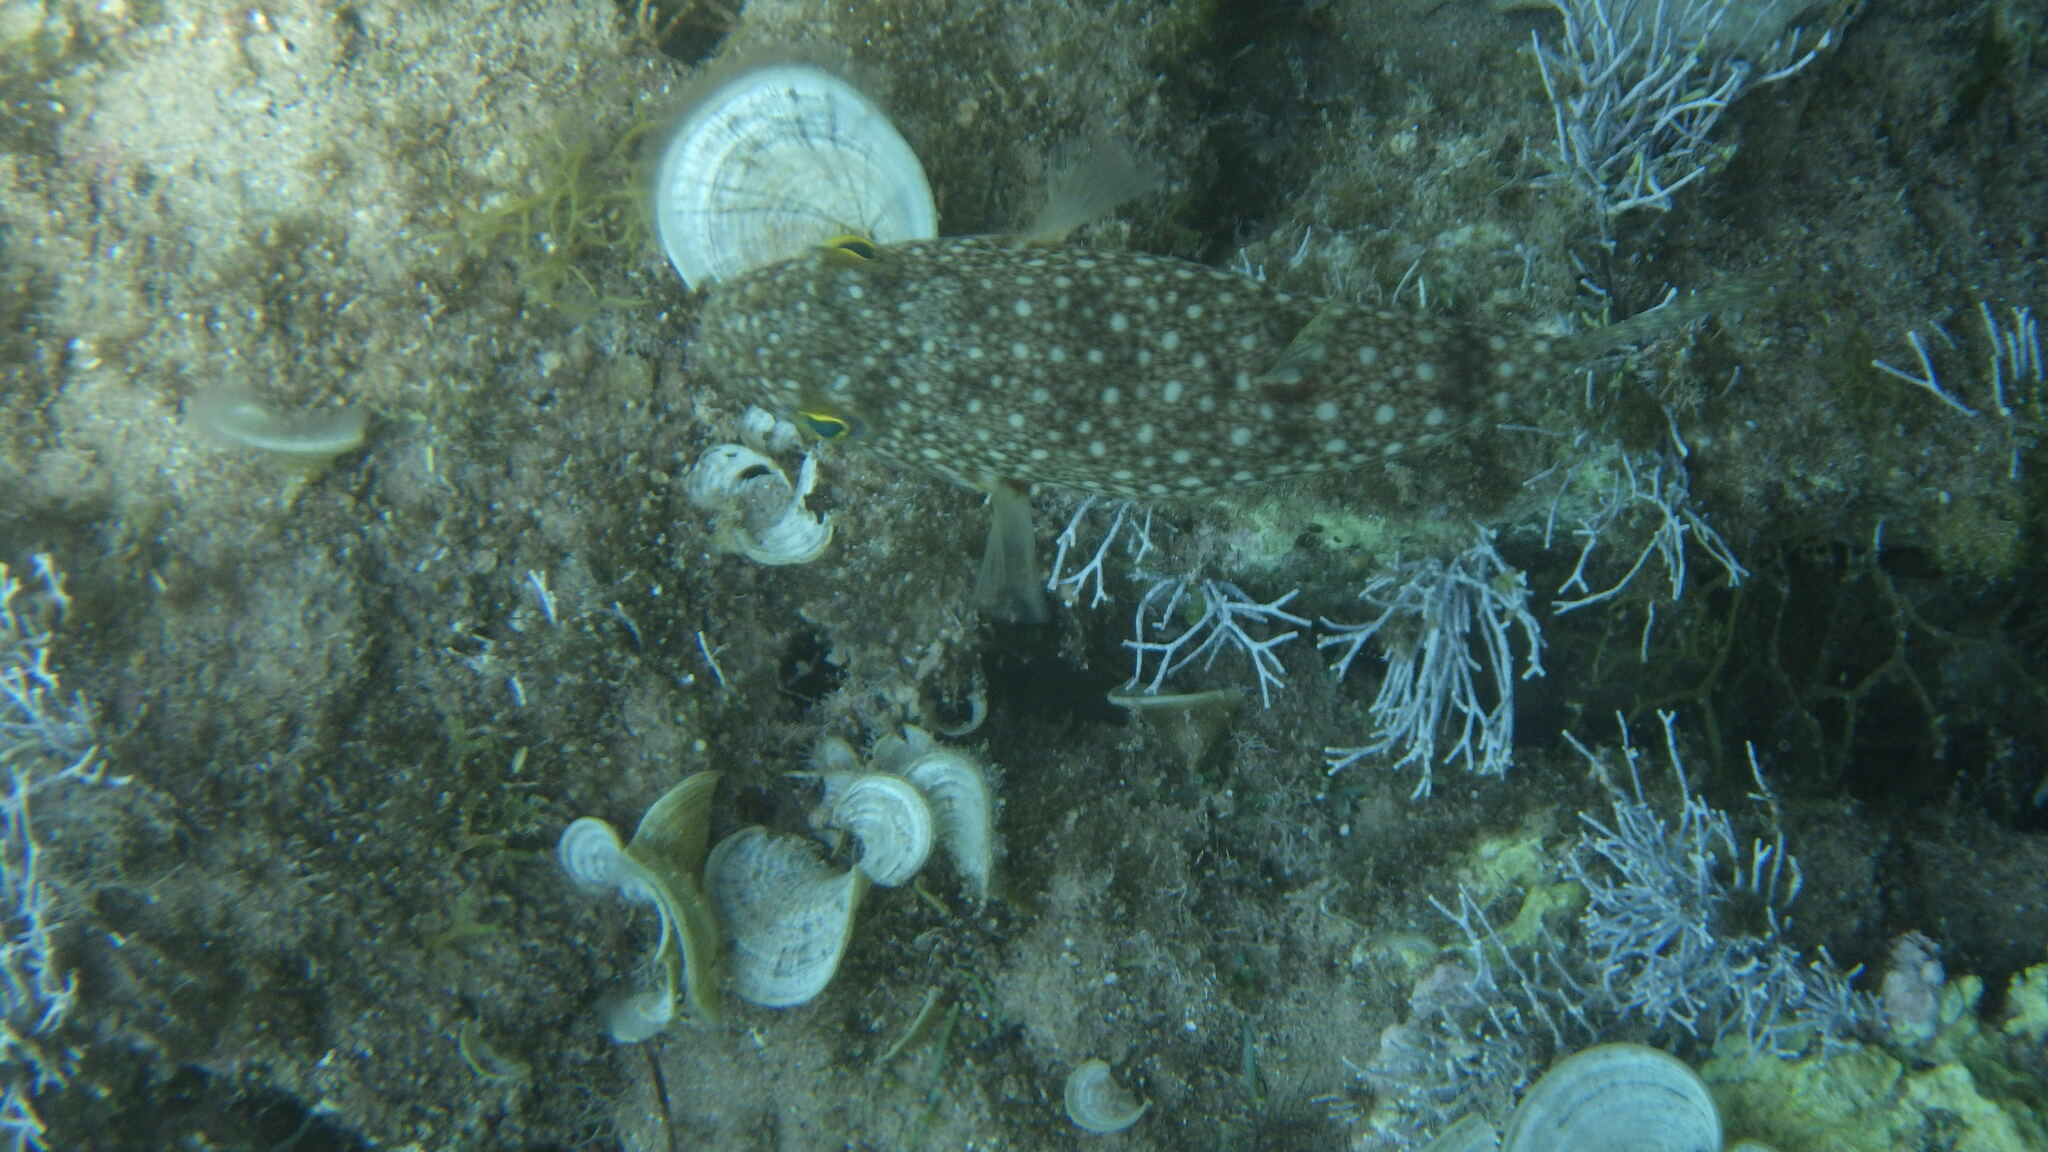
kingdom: Animalia
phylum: Chordata
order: Tetraodontiformes
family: Tetraodontidae
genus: Torquigener
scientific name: Torquigener flavimaculosus
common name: Studded pufferfish
